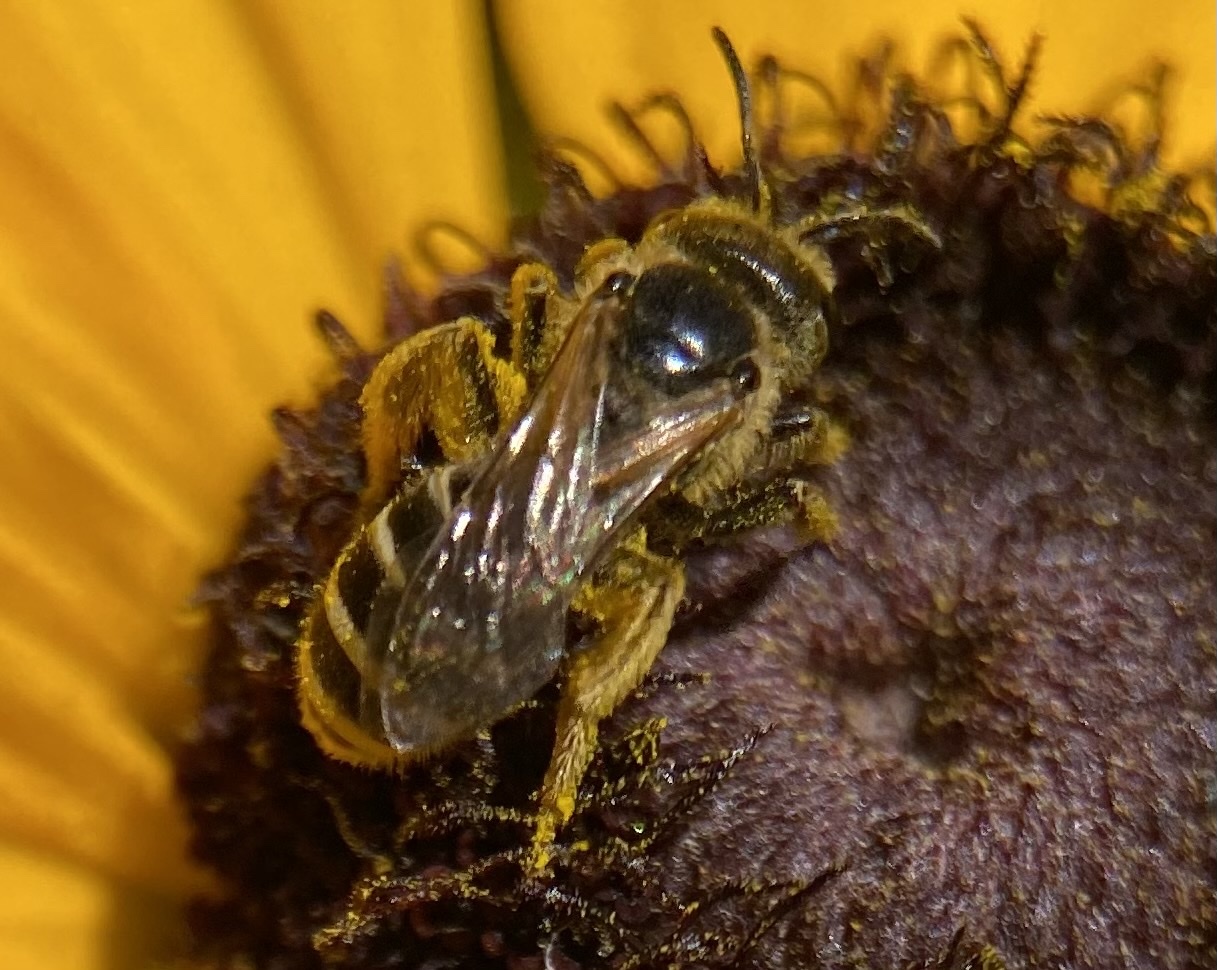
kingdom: Animalia
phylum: Arthropoda
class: Insecta
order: Hymenoptera
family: Halictidae
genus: Halictus
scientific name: Halictus ligatus
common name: Ligated furrow bee
